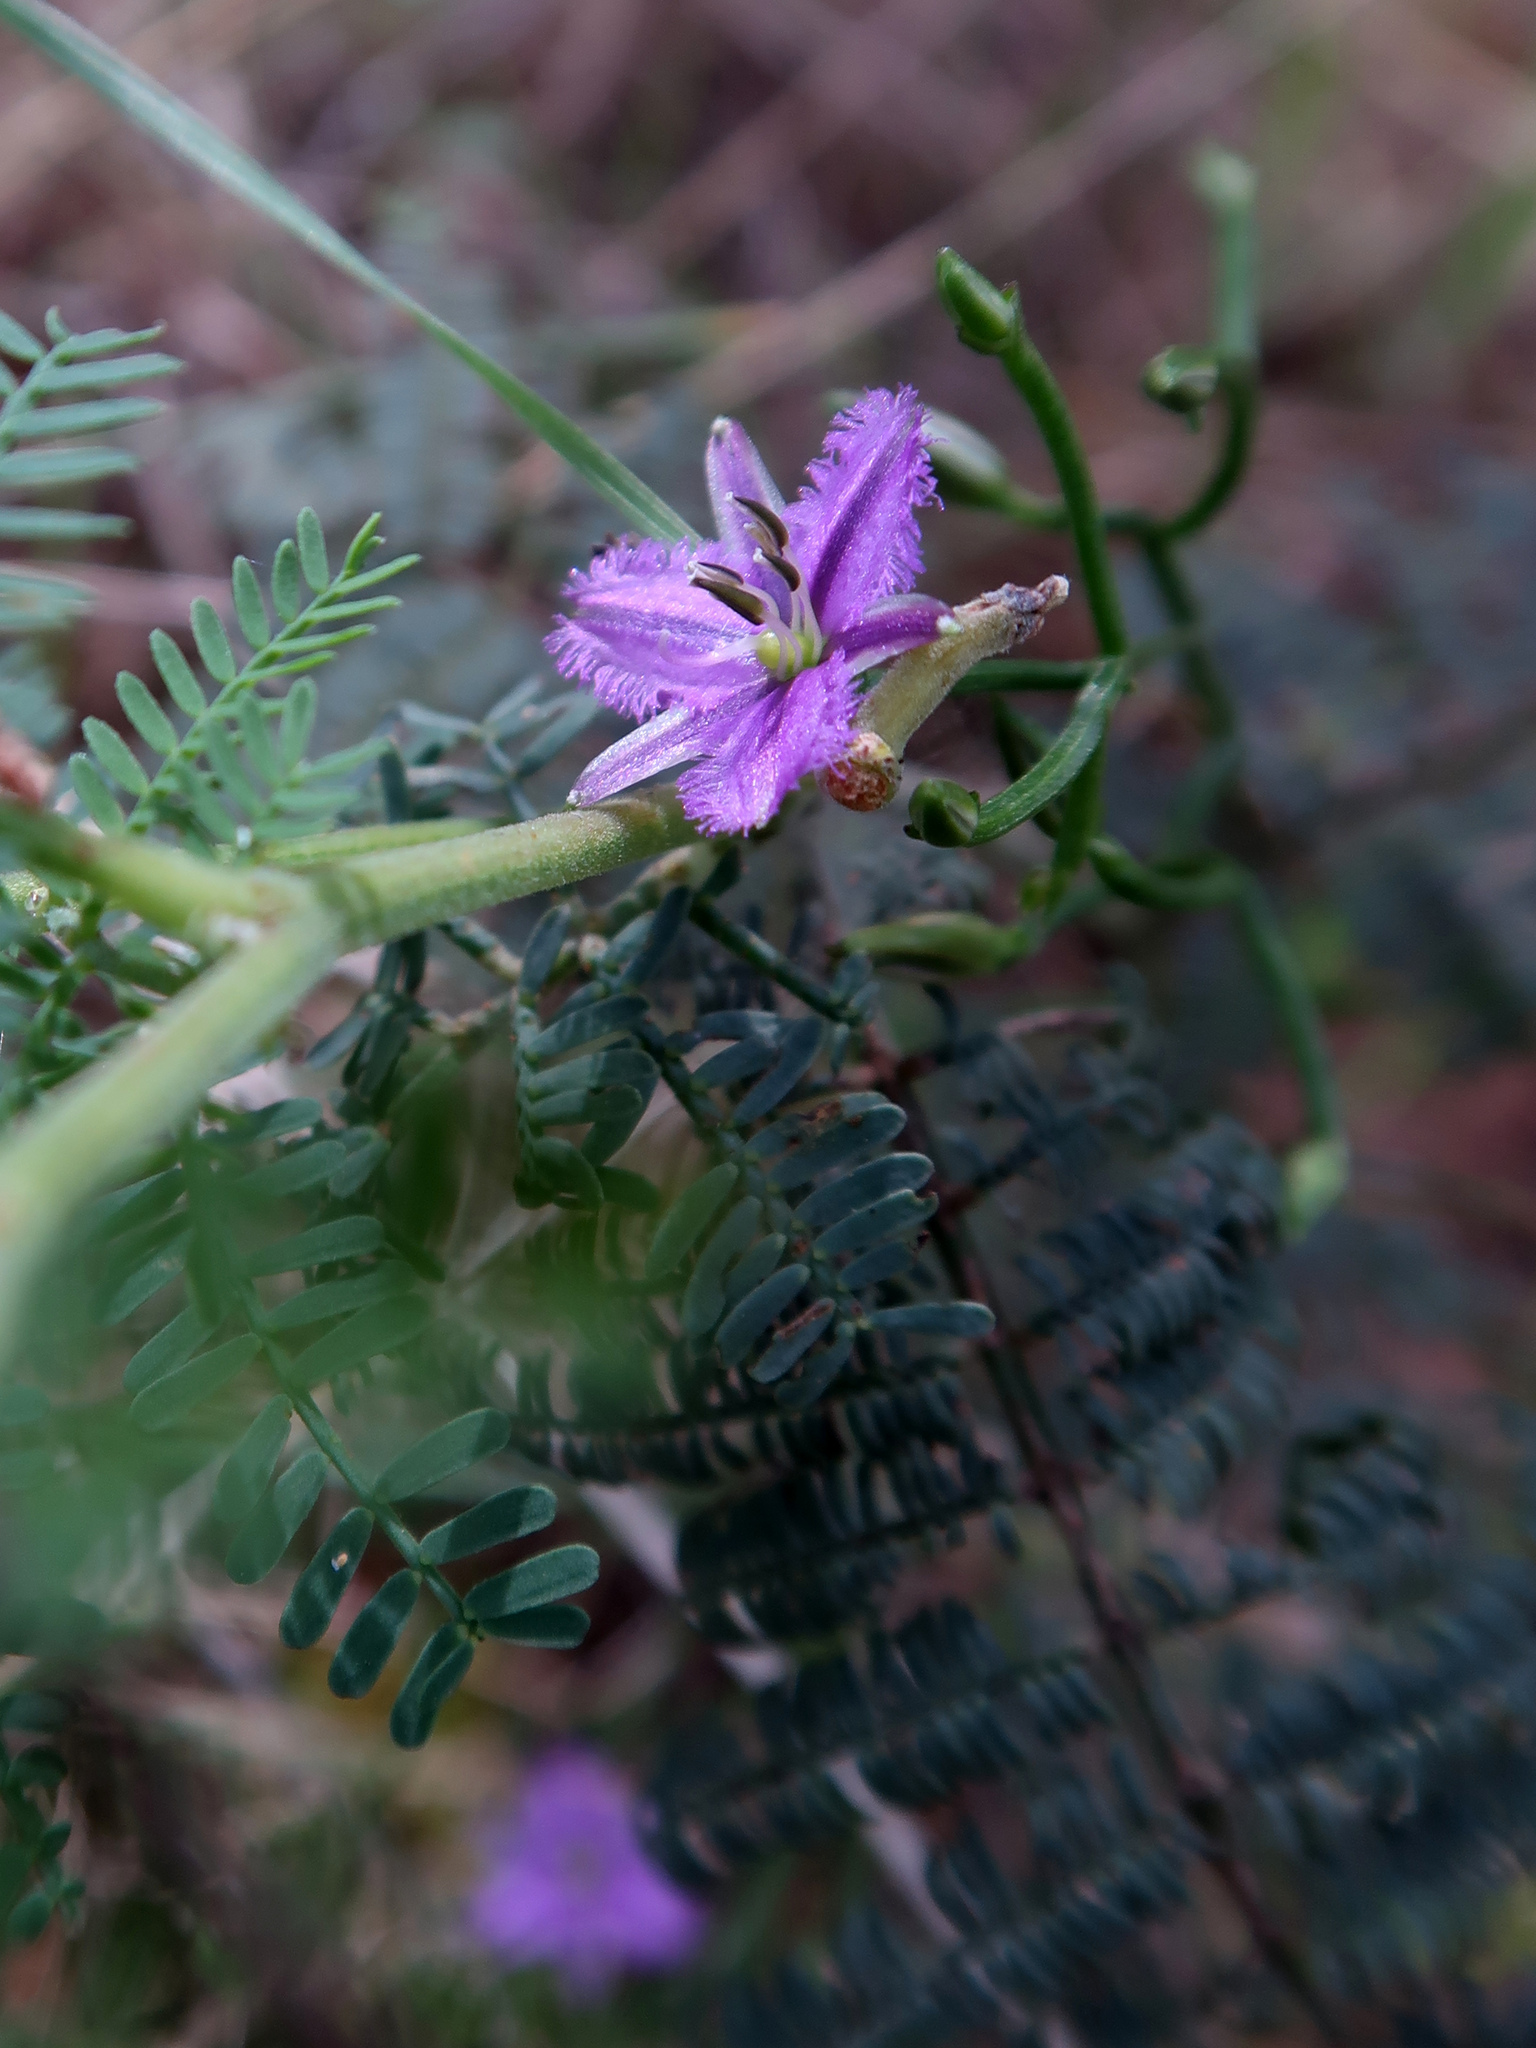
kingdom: Plantae
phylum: Tracheophyta
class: Liliopsida
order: Asparagales
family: Asparagaceae
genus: Thysanotus
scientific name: Thysanotus patersonii
